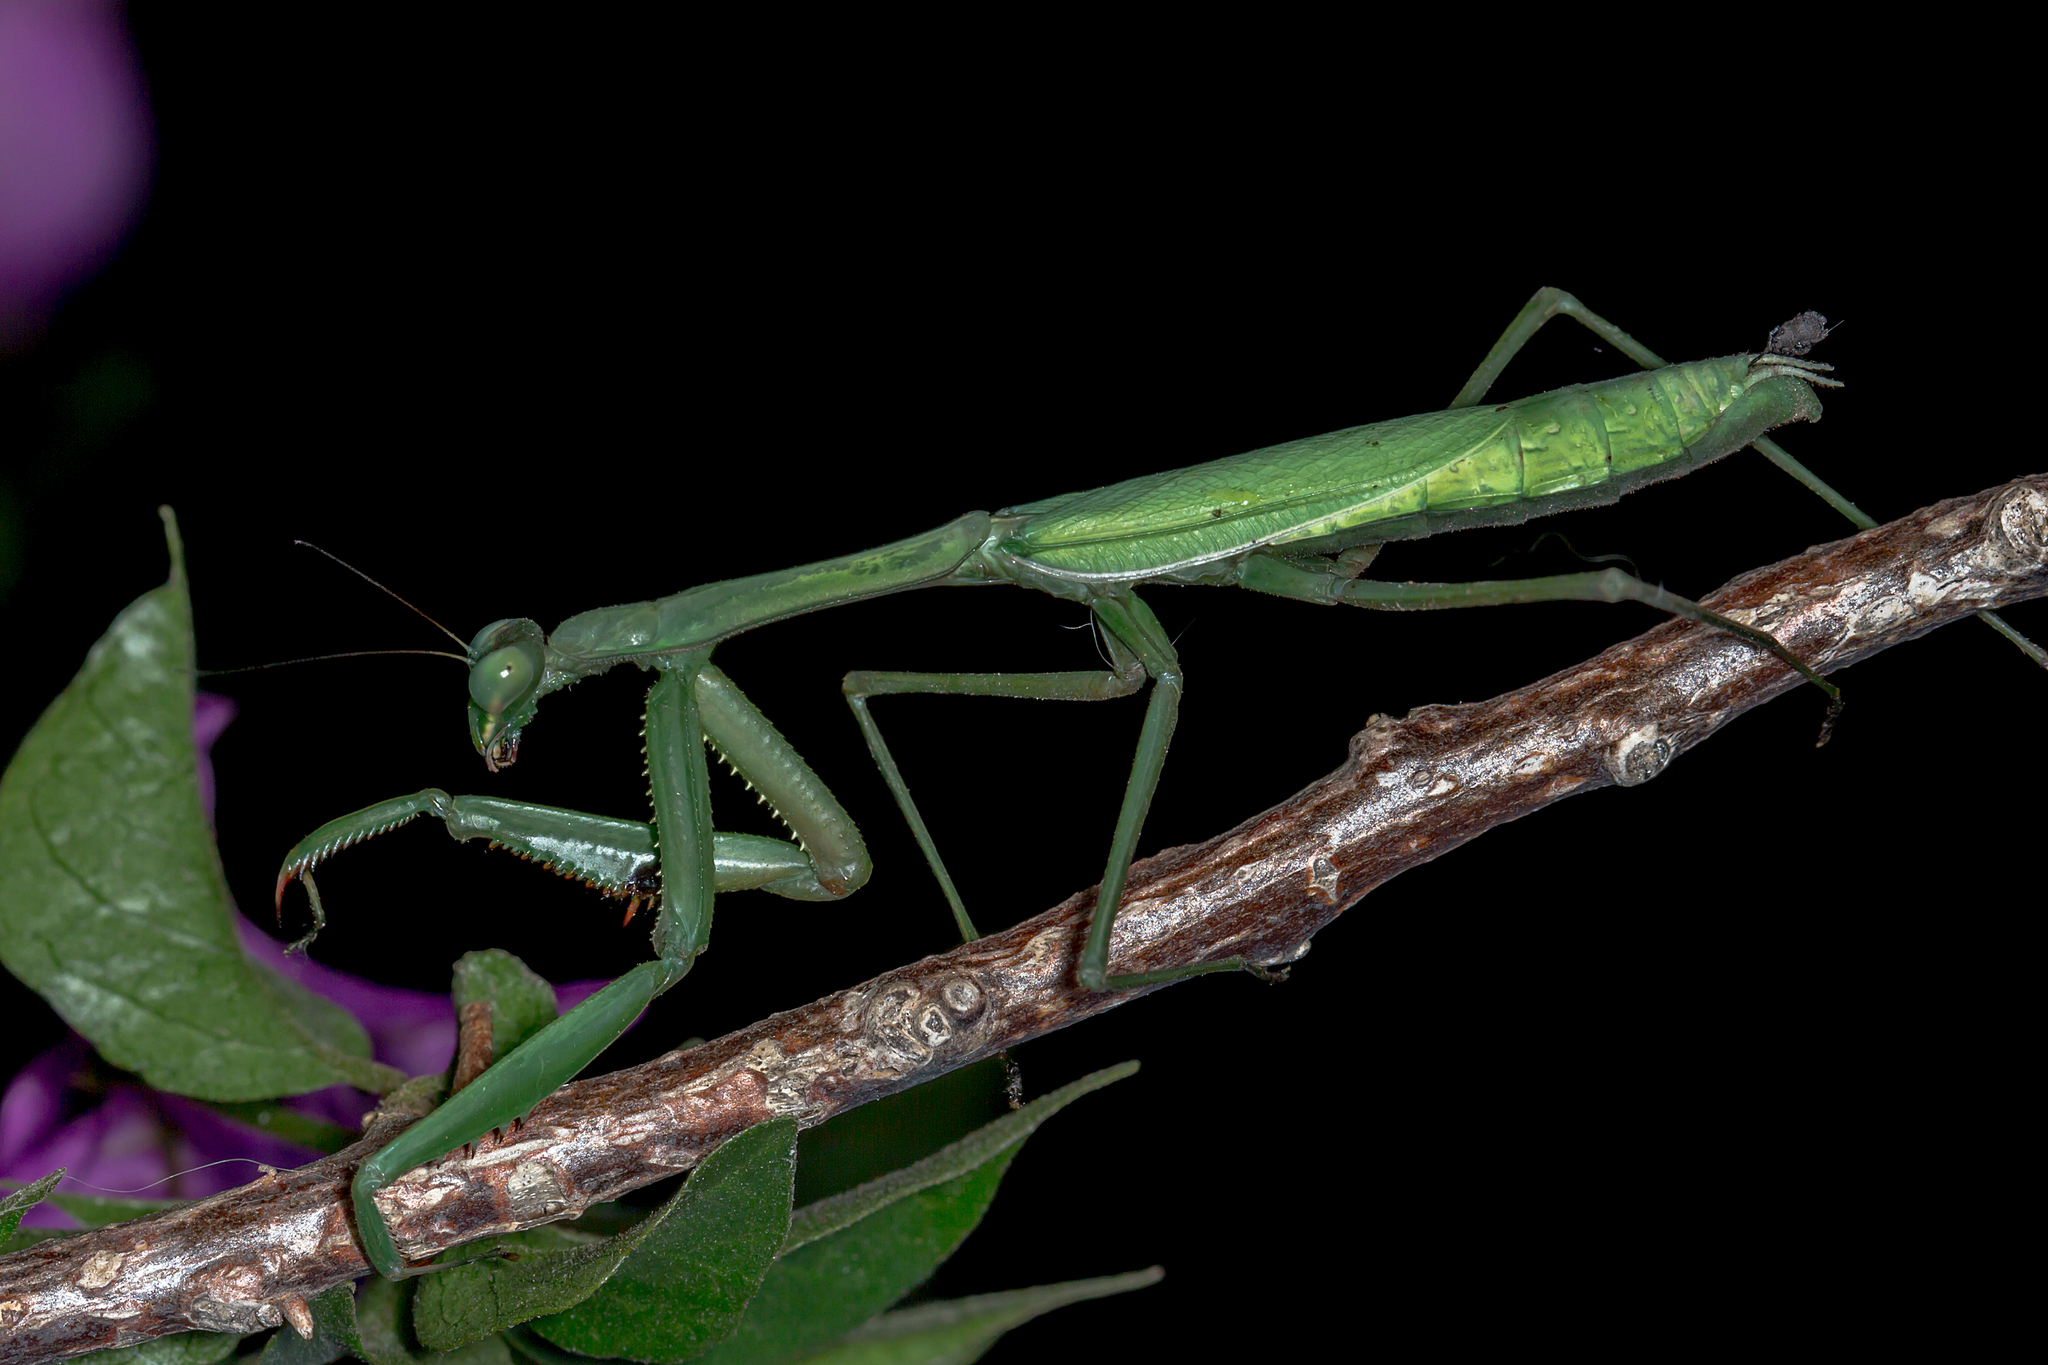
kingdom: Animalia
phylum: Arthropoda
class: Insecta
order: Mantodea
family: Mantidae
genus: Pseudomantis
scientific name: Pseudomantis albofimbriata
